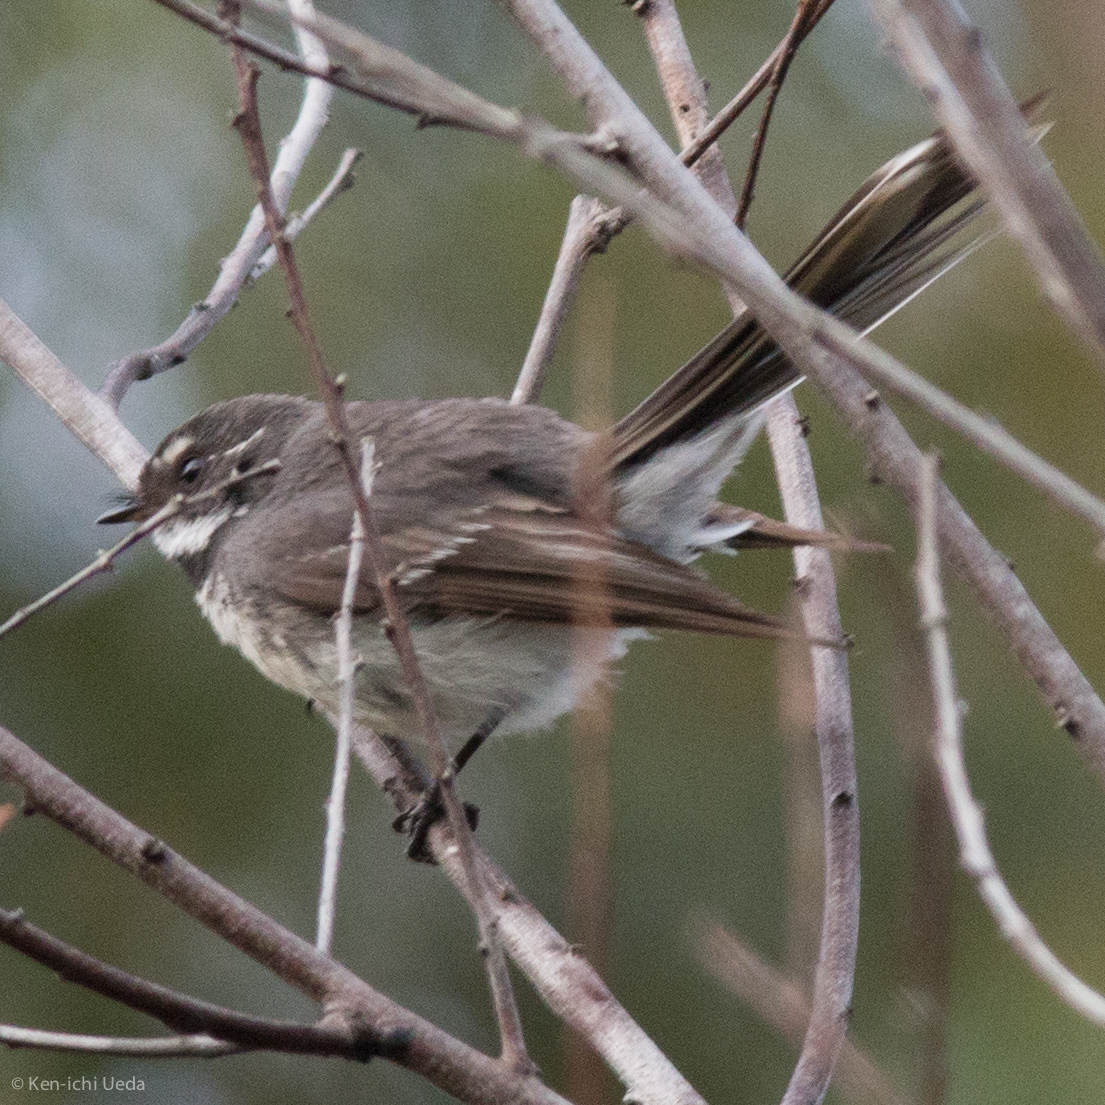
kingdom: Animalia
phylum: Chordata
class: Aves
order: Passeriformes
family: Rhipiduridae
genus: Rhipidura
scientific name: Rhipidura albiscapa
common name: Grey fantail
